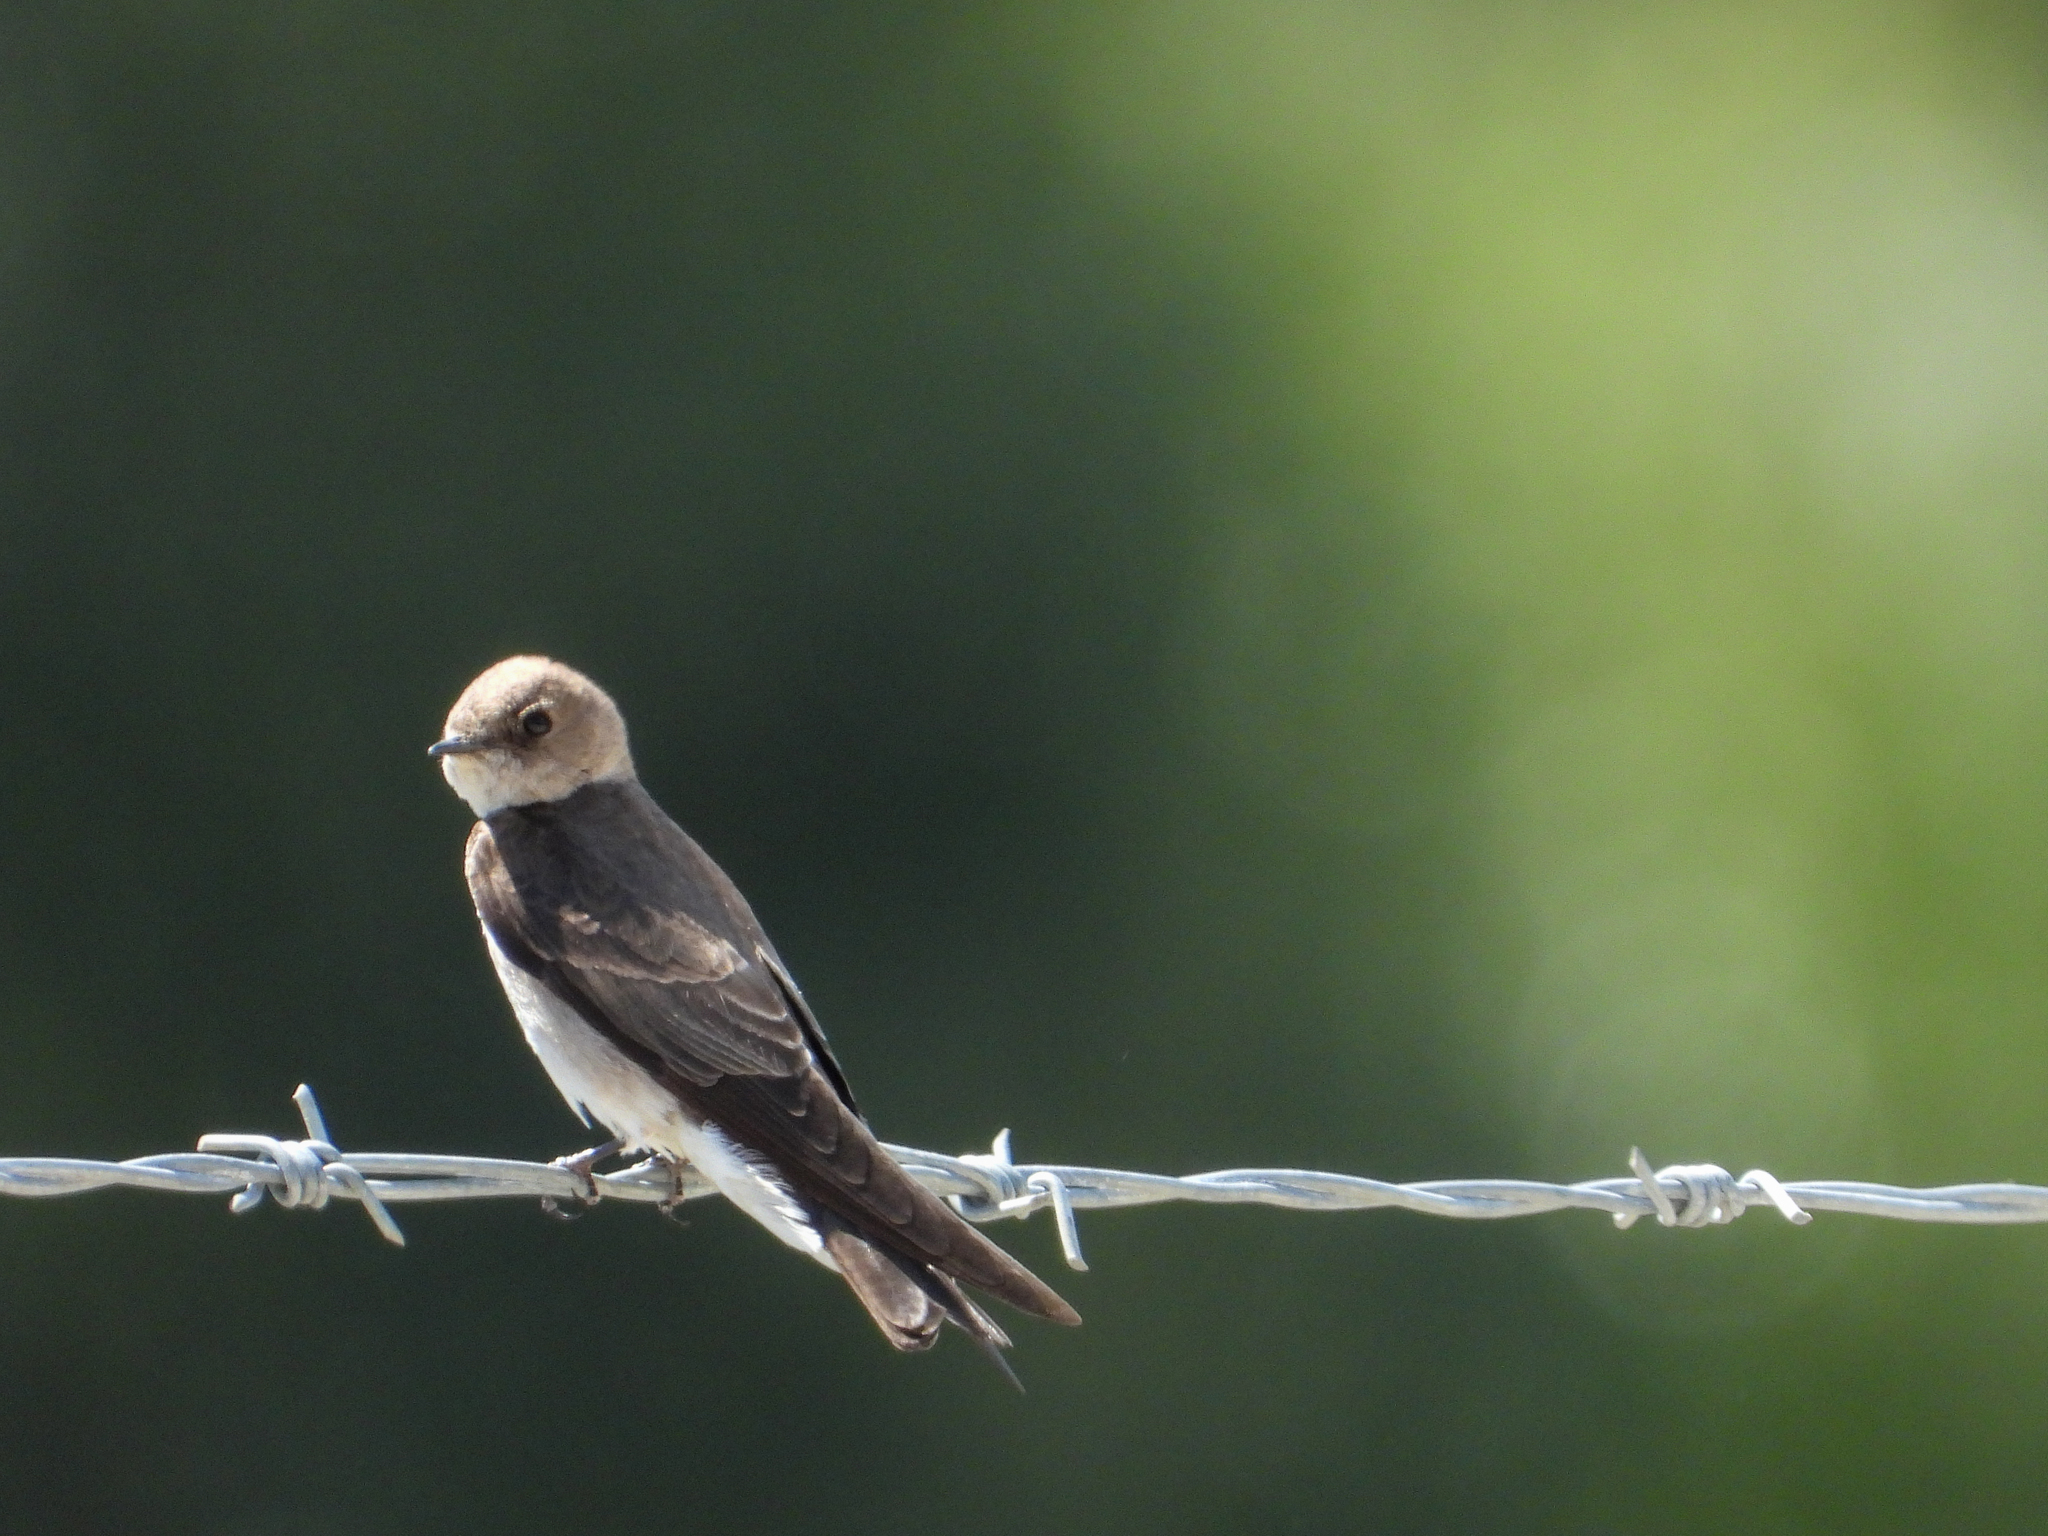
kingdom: Animalia
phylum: Chordata
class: Aves
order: Passeriformes
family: Hirundinidae
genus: Stelgidopteryx
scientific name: Stelgidopteryx serripennis
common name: Northern rough-winged swallow
